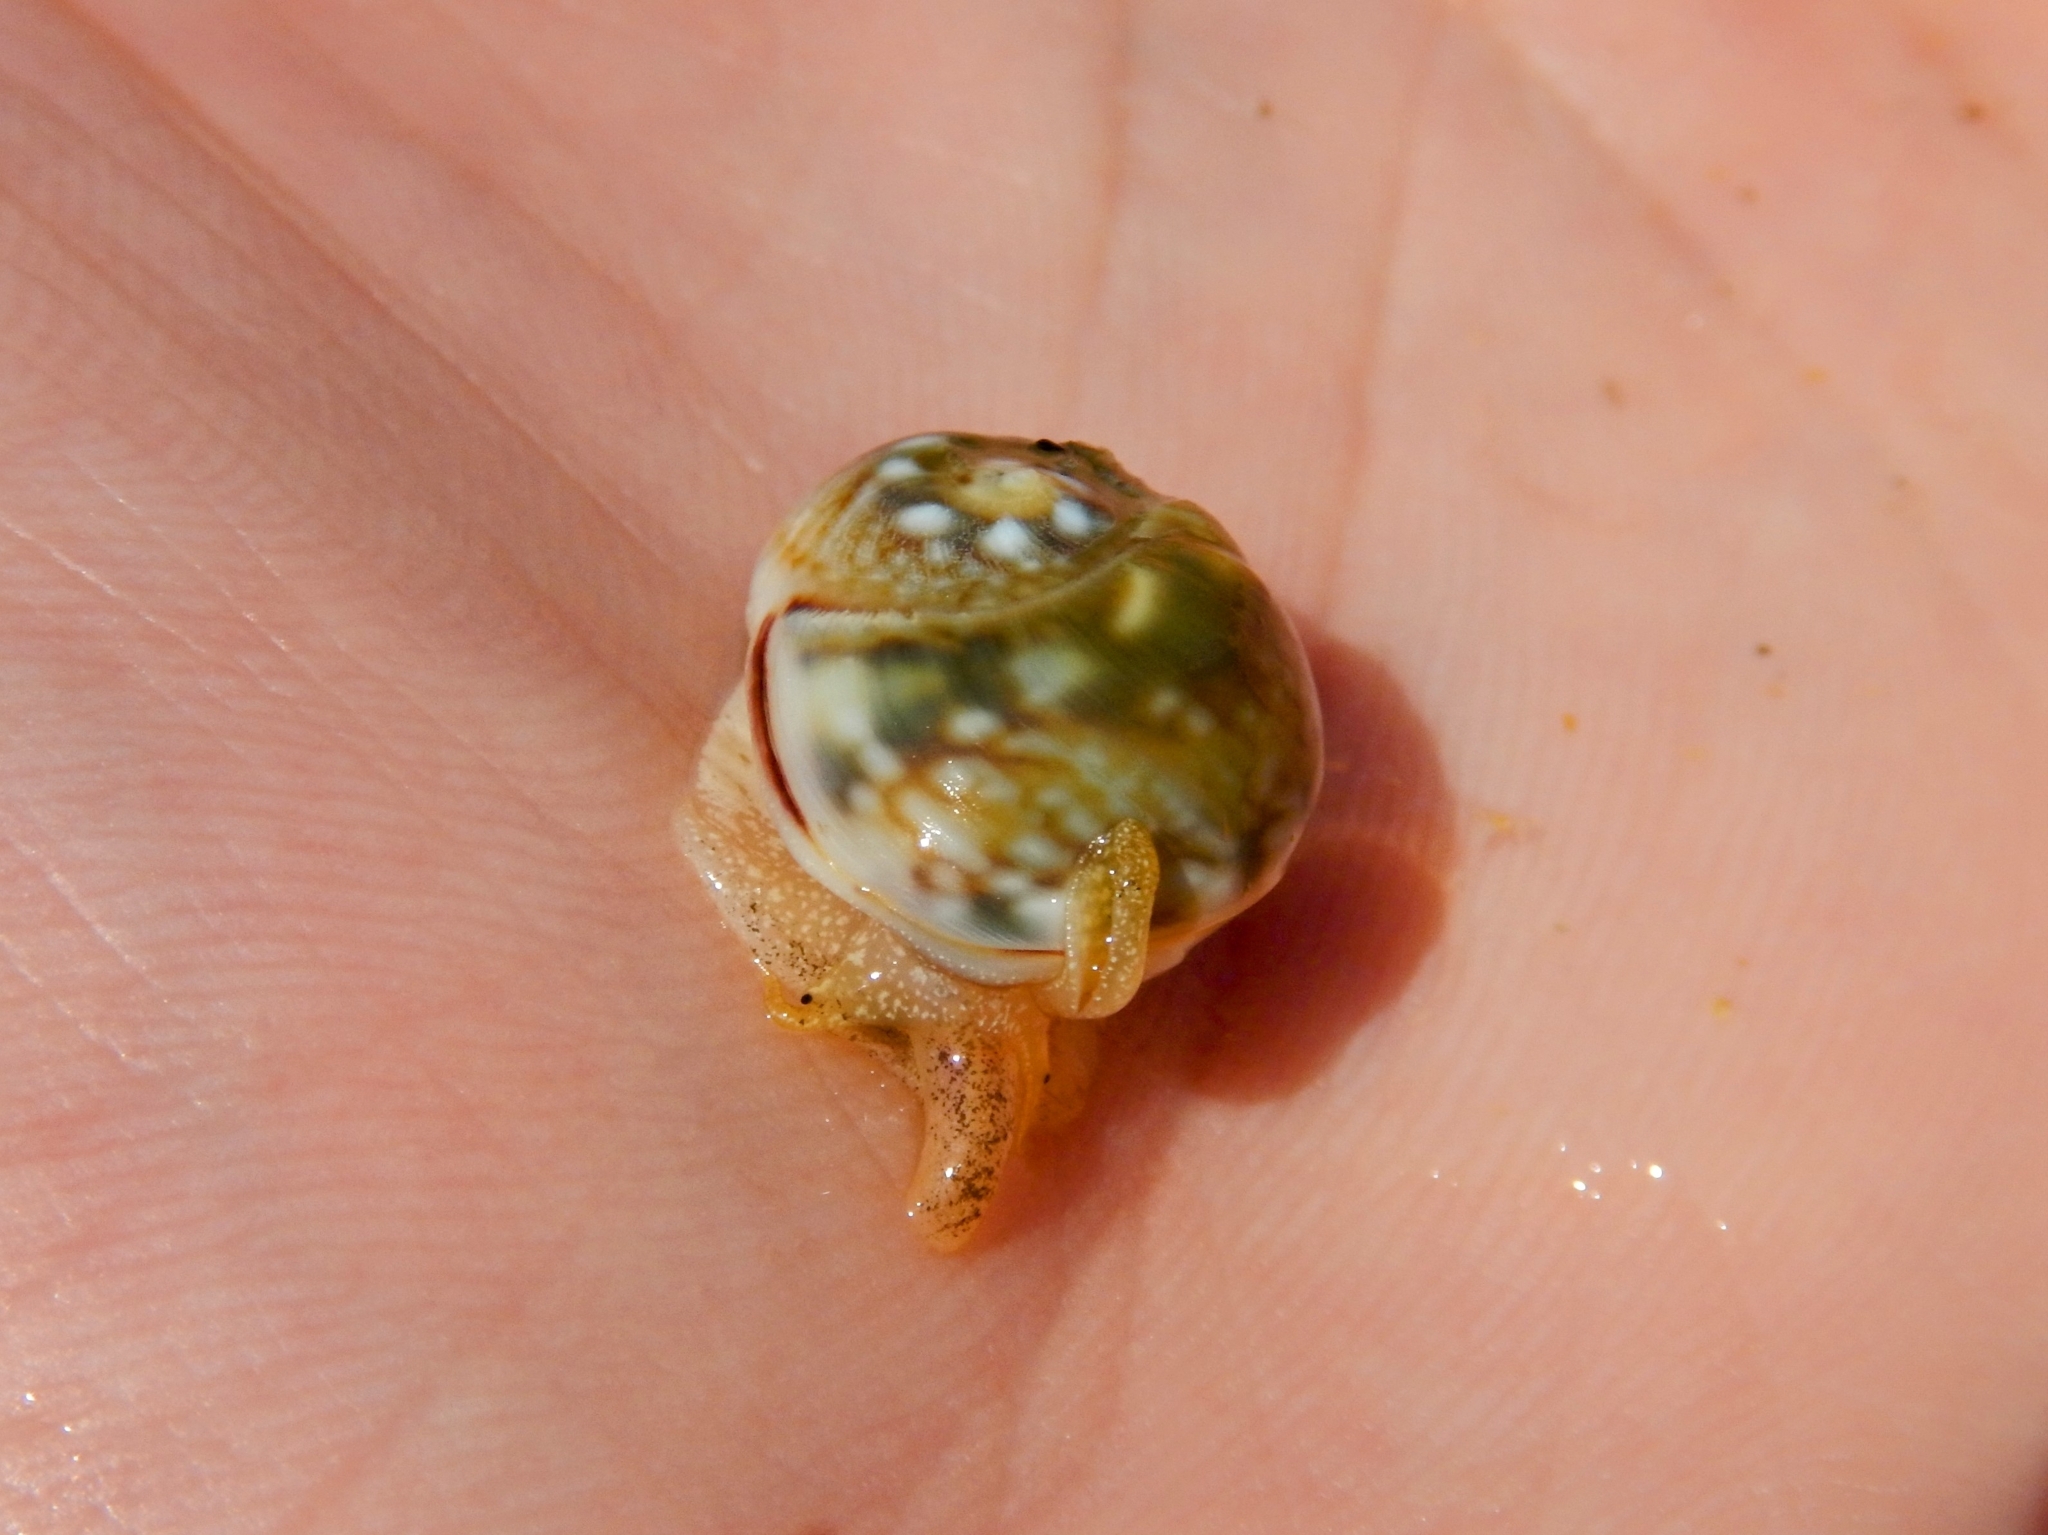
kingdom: Animalia
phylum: Mollusca
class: Gastropoda
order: Neogastropoda
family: Nassariidae
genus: Tritia
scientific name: Tritia neritea
